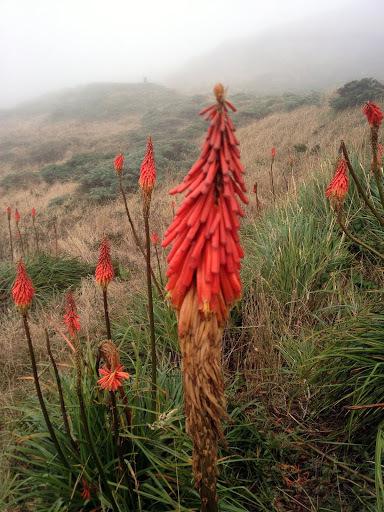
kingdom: Plantae
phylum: Tracheophyta
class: Liliopsida
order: Asparagales
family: Asphodelaceae
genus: Kniphofia
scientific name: Kniphofia uvaria
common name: Red-hot-poker
